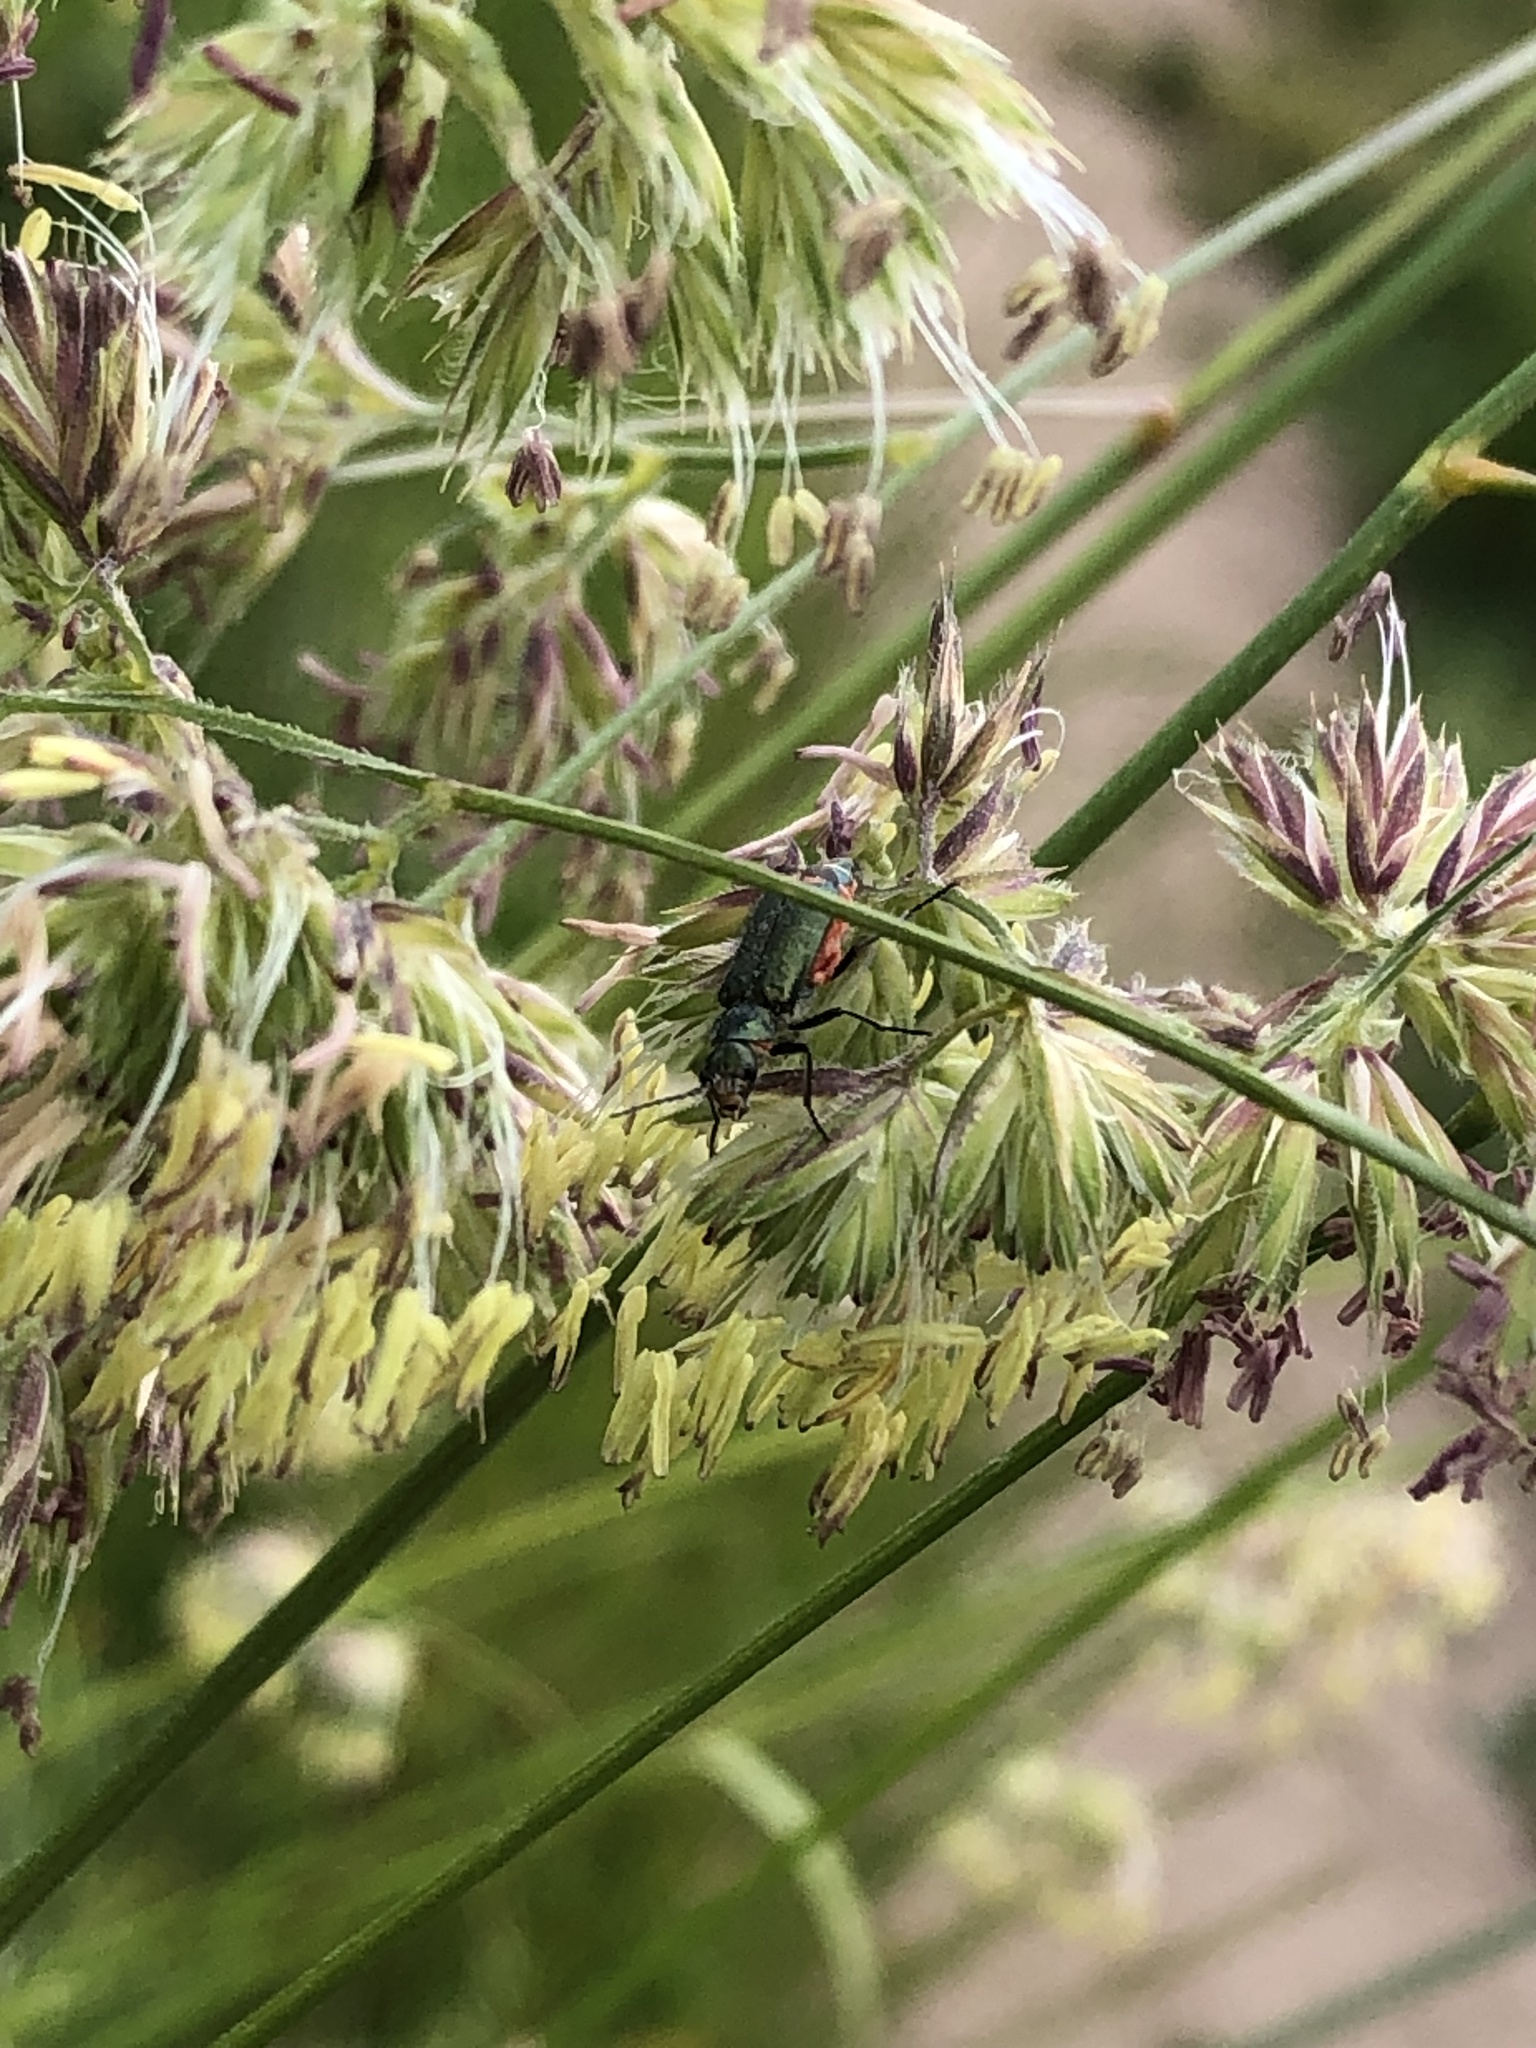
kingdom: Animalia
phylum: Arthropoda
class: Insecta
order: Coleoptera
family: Melyridae
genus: Malachius
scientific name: Malachius bipustulatus
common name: Malachite beetle
